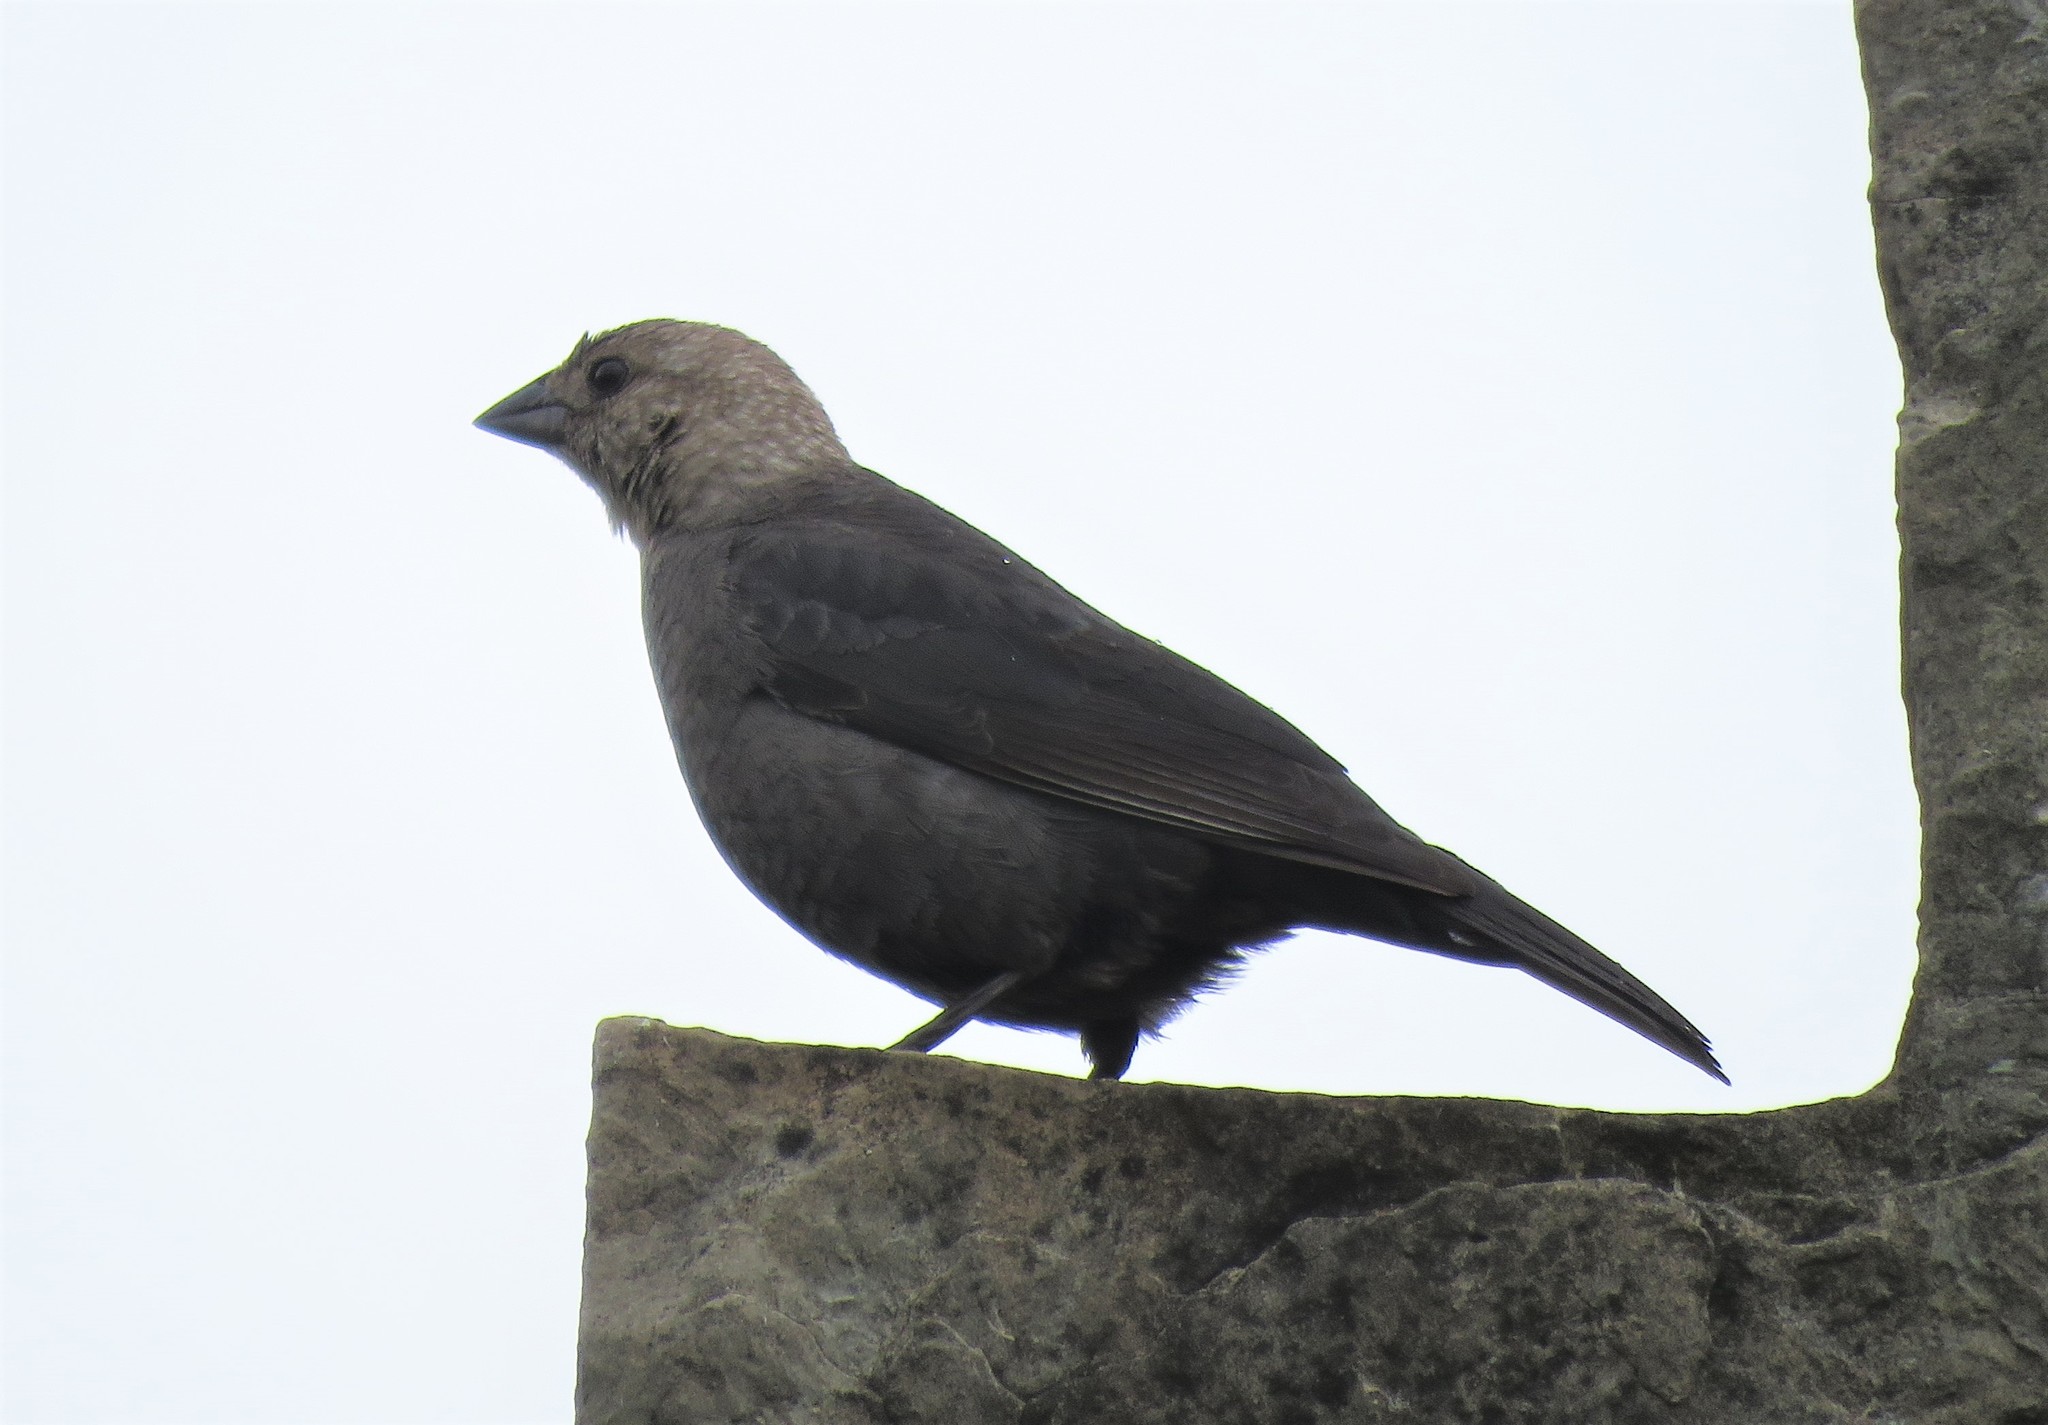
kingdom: Animalia
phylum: Chordata
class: Aves
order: Passeriformes
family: Icteridae
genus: Molothrus
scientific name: Molothrus ater
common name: Brown-headed cowbird
